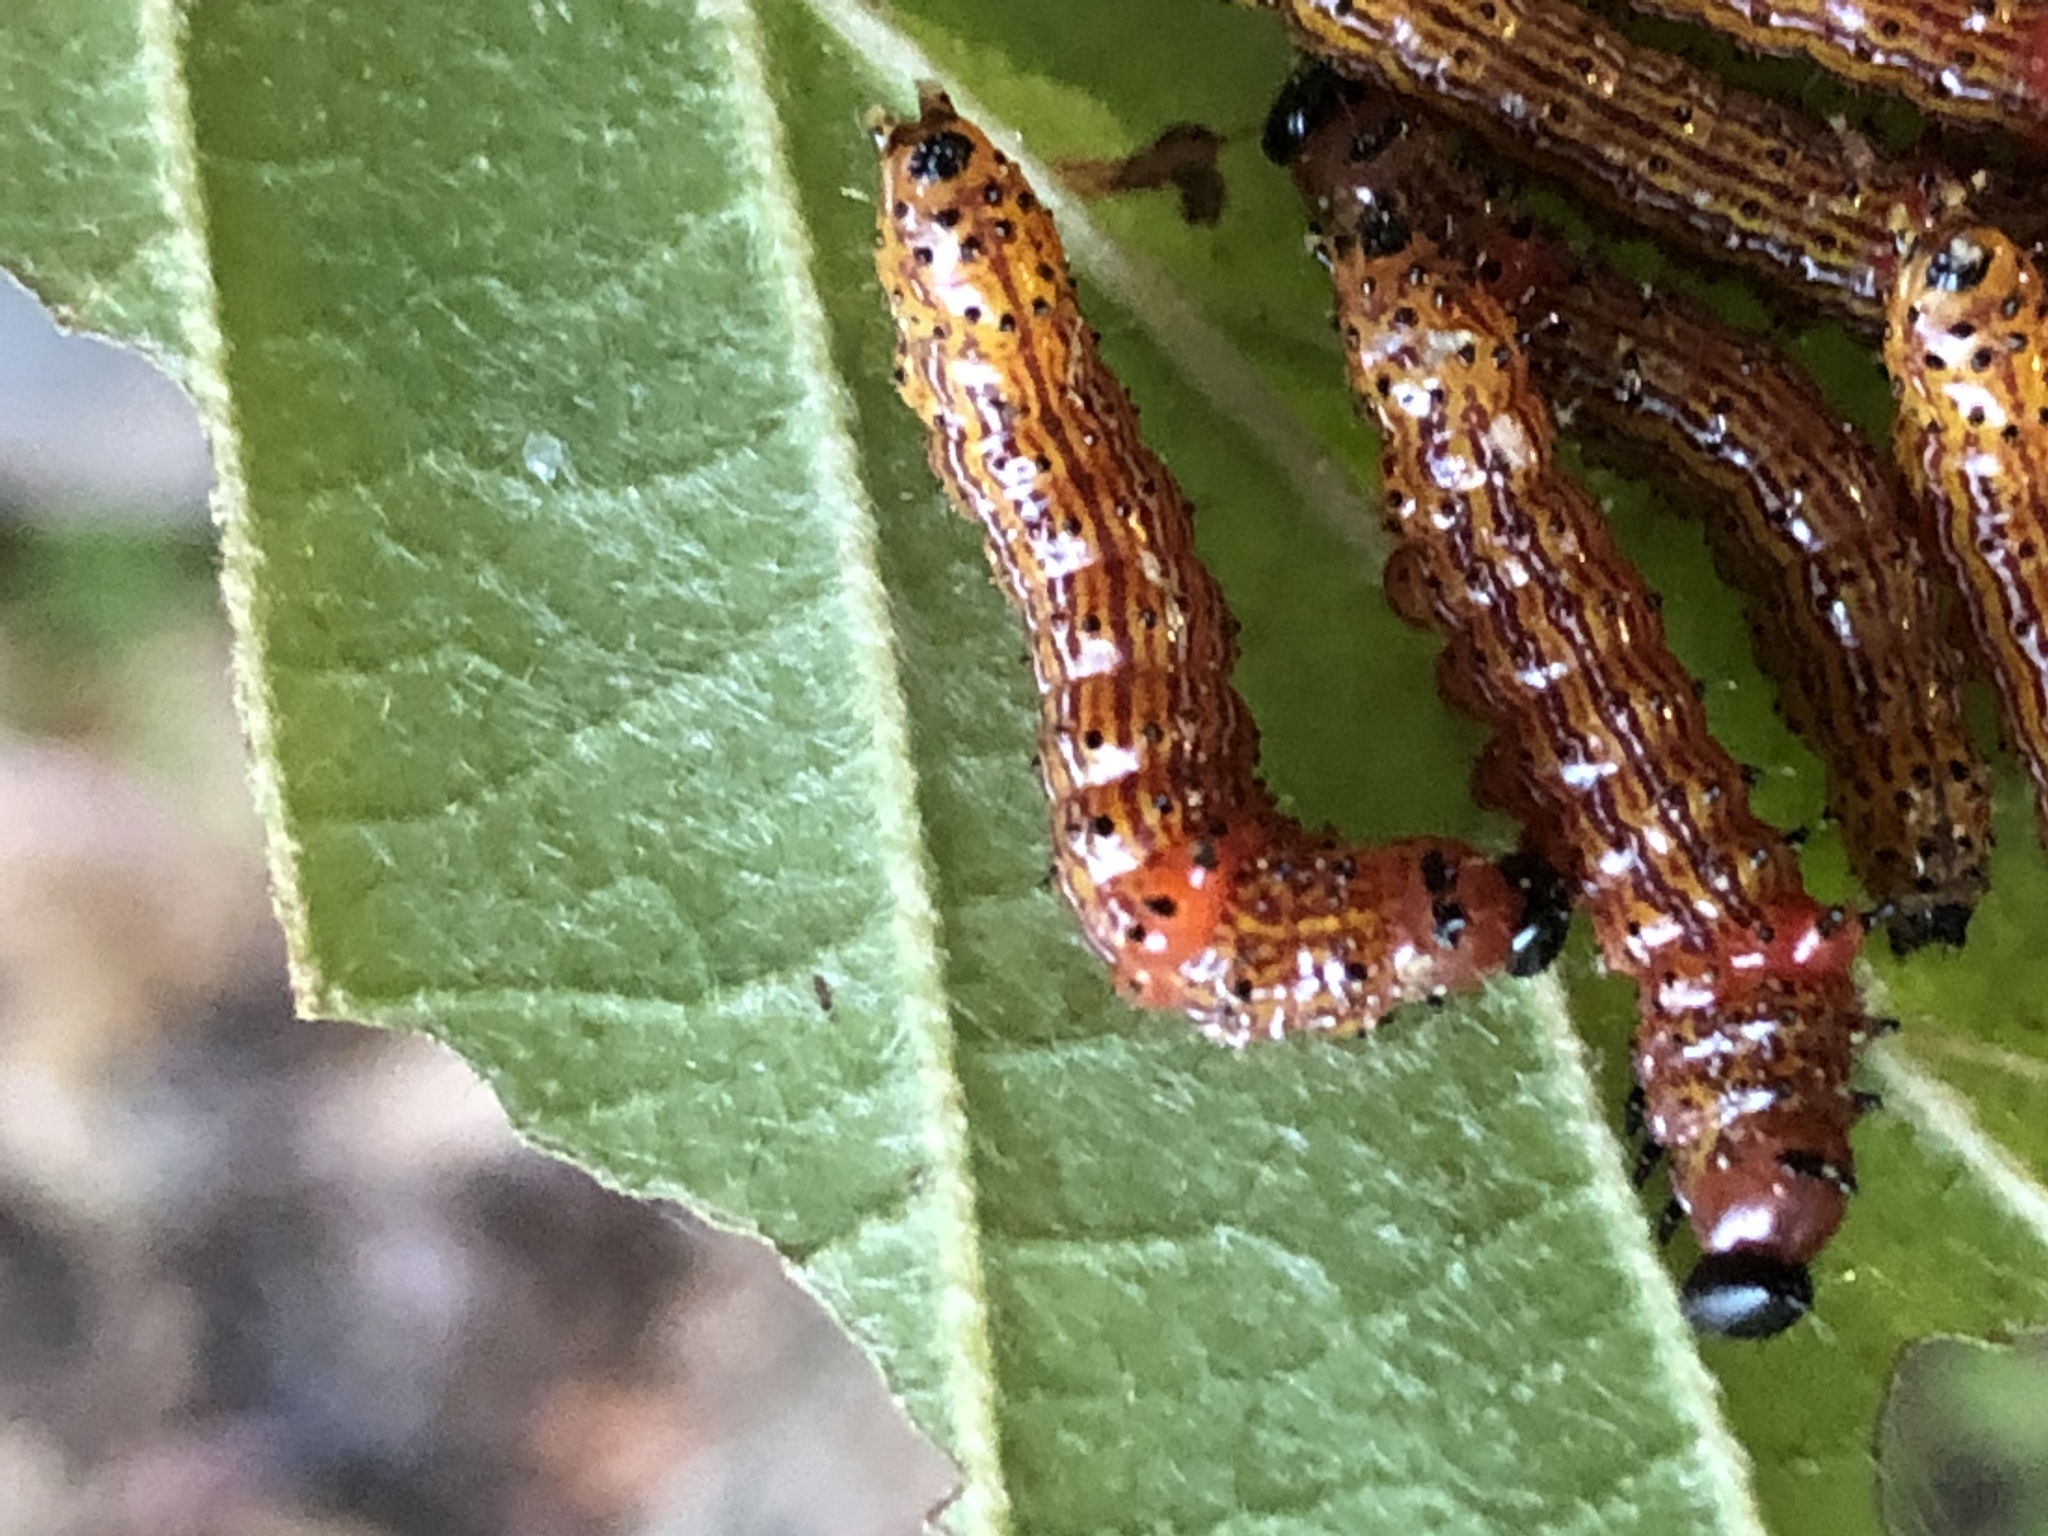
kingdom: Animalia
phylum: Arthropoda
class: Insecta
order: Lepidoptera
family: Notodontidae
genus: Schizura
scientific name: Schizura
